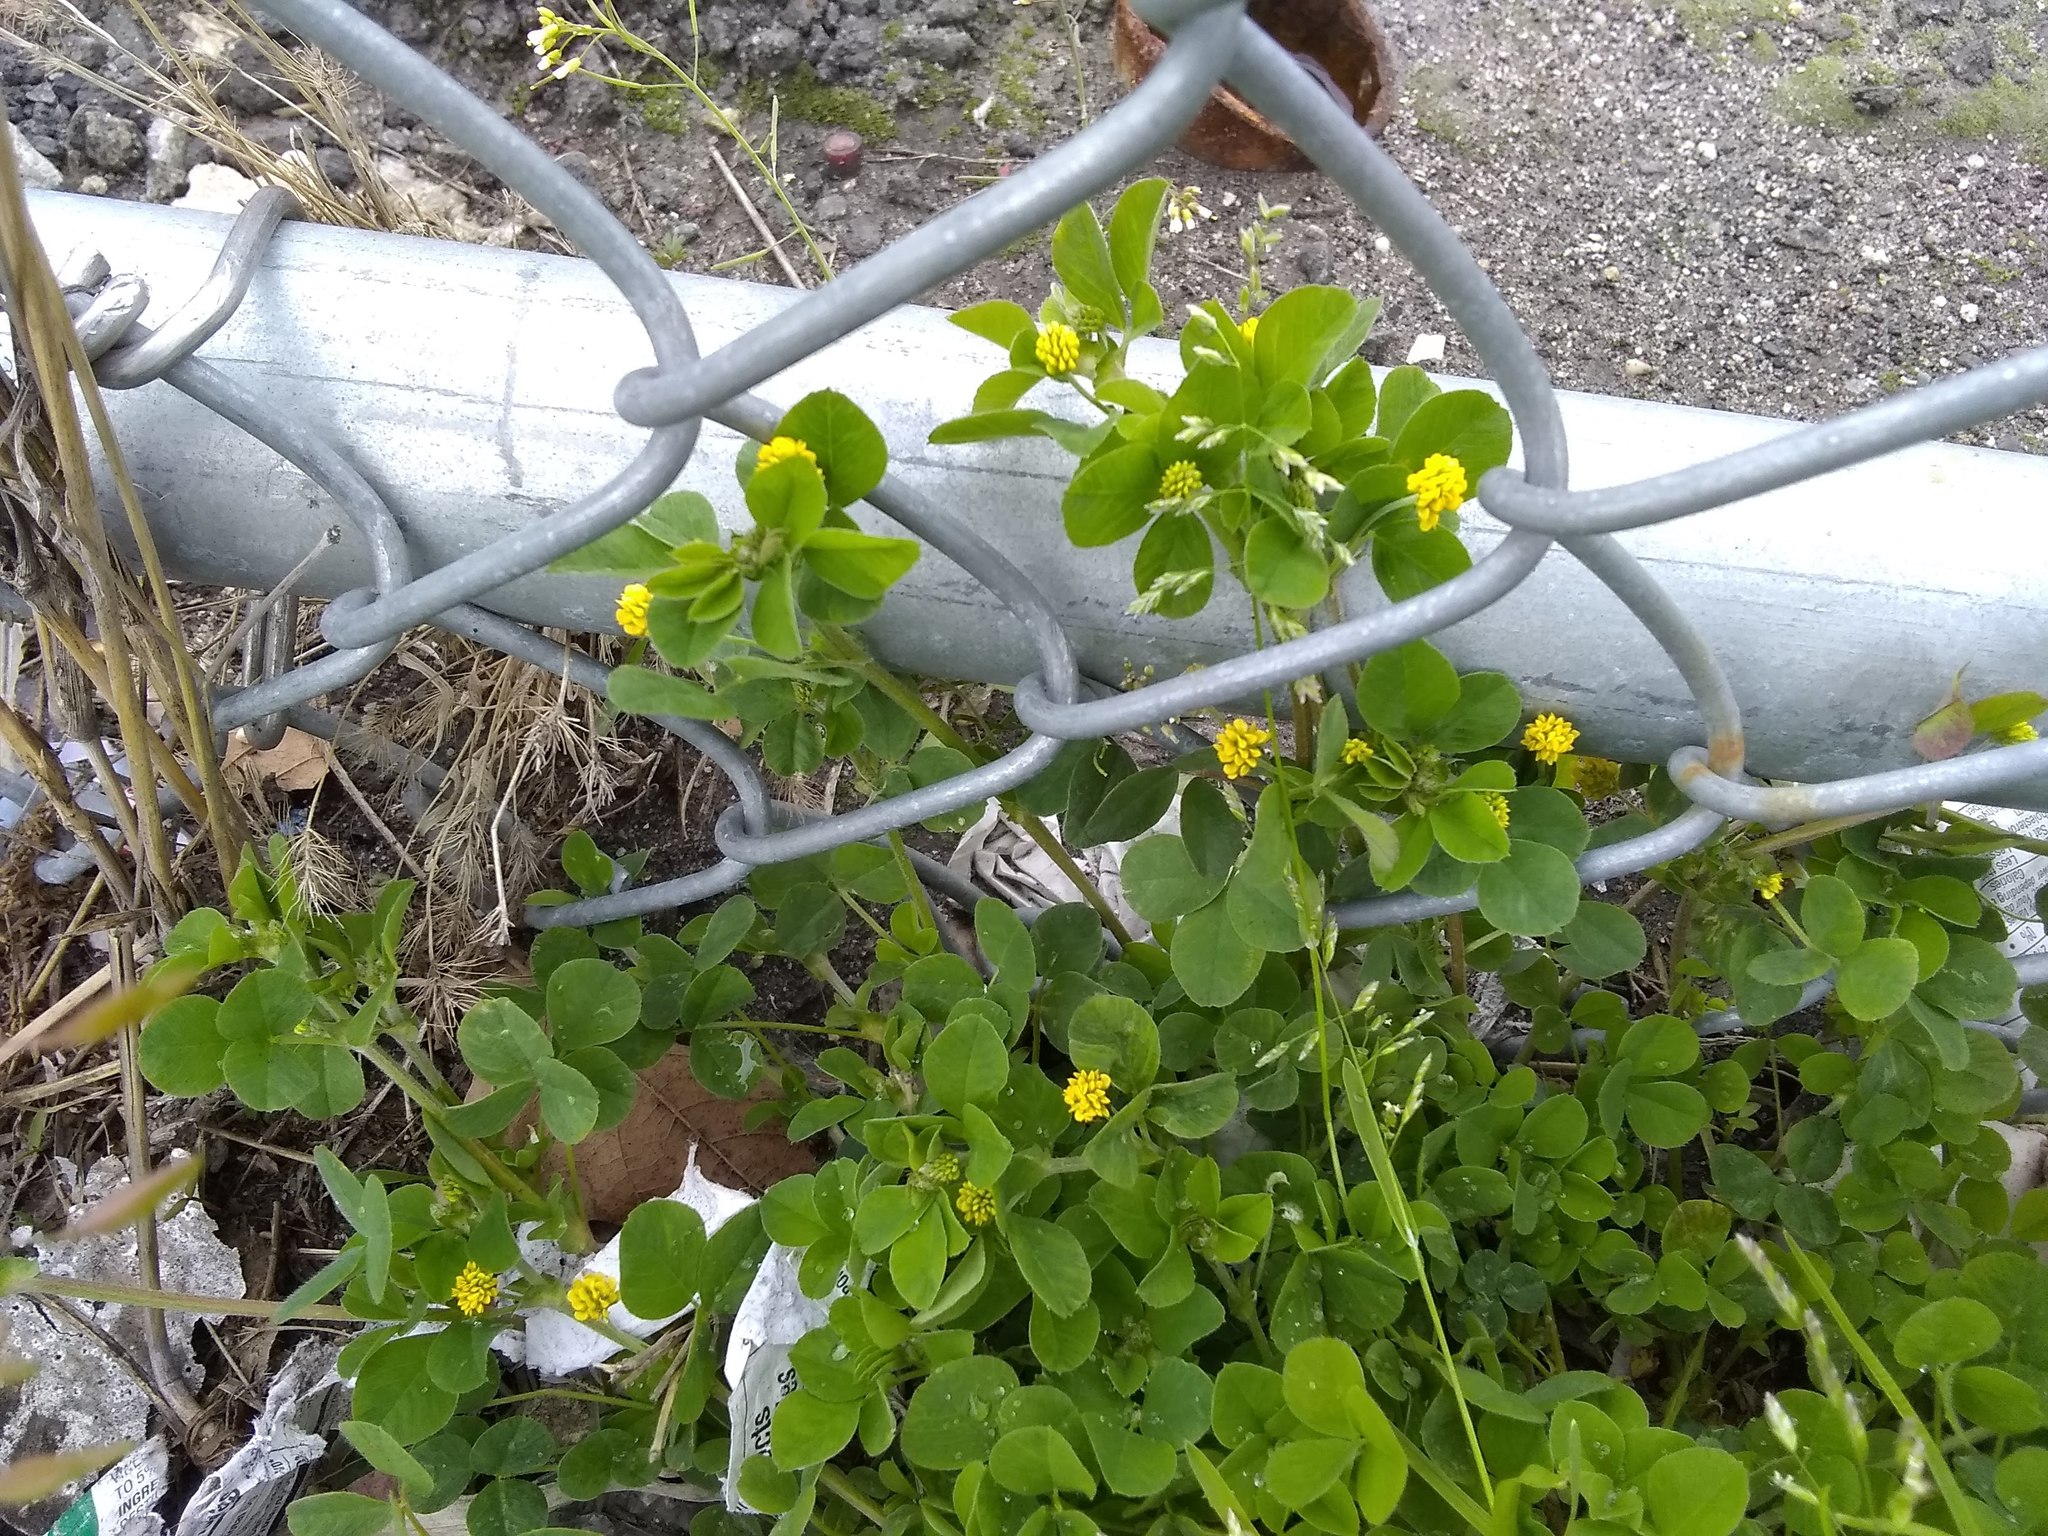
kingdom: Plantae
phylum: Tracheophyta
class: Magnoliopsida
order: Fabales
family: Fabaceae
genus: Medicago
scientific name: Medicago lupulina
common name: Black medick
